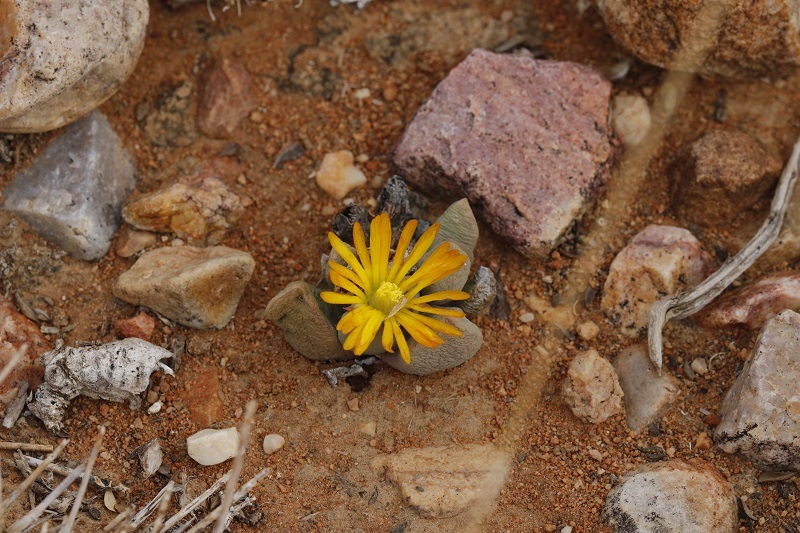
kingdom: Plantae
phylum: Tracheophyta
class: Magnoliopsida
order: Caryophyllales
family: Aizoaceae
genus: Bijlia
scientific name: Bijlia dilatata
